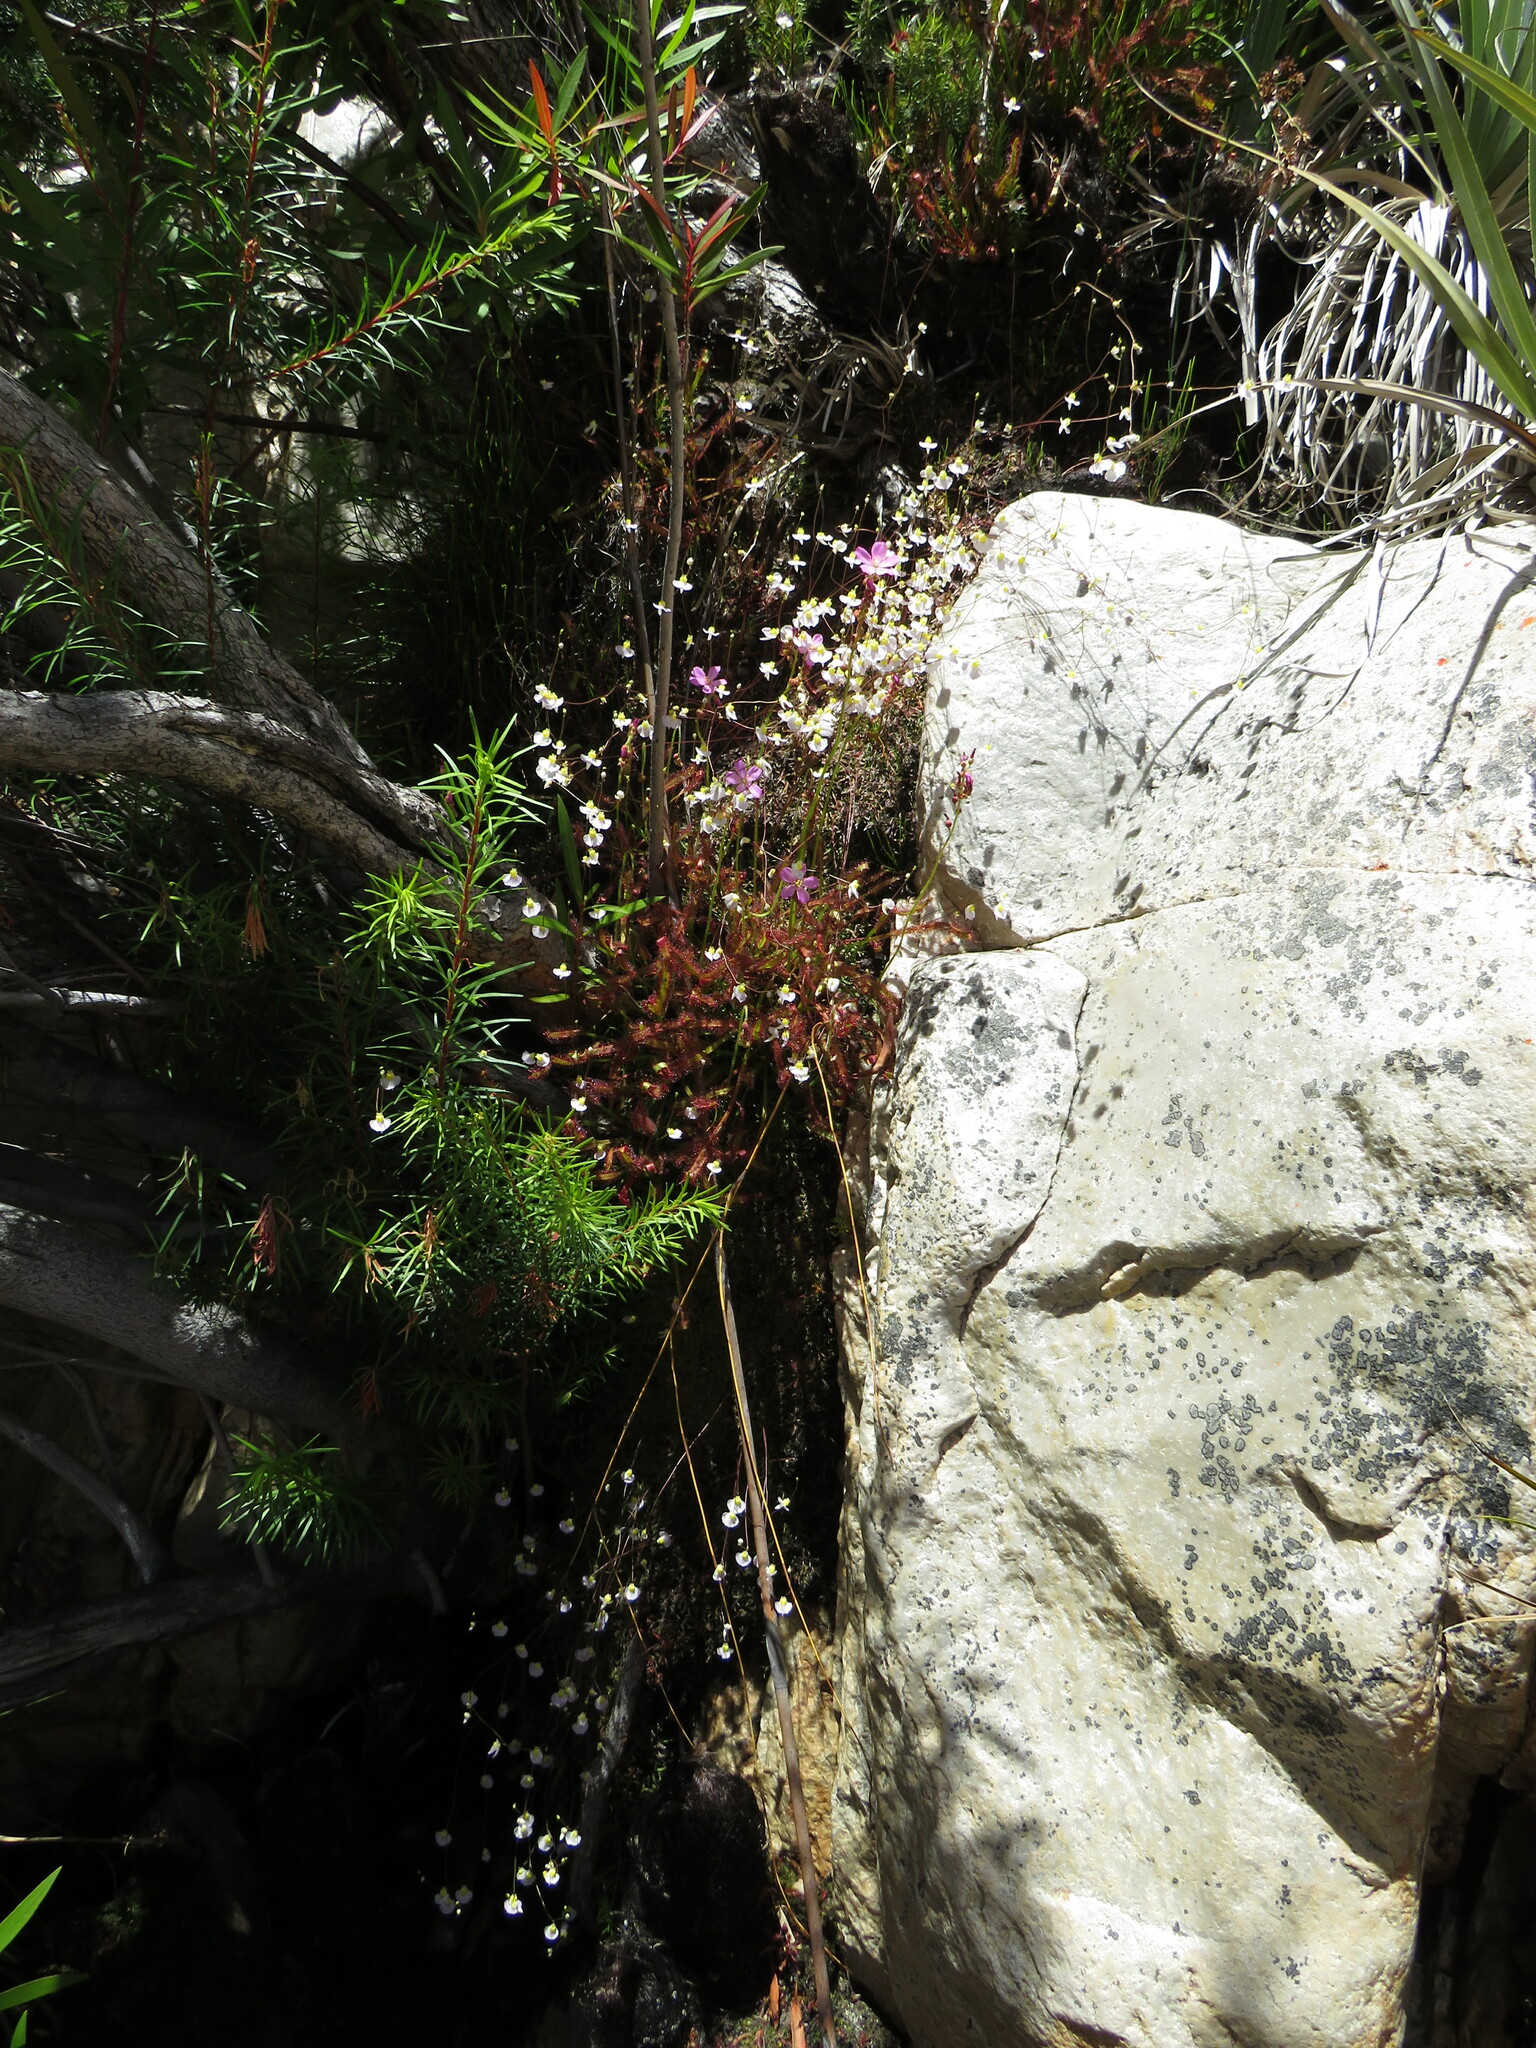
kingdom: Plantae
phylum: Tracheophyta
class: Magnoliopsida
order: Caryophyllales
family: Droseraceae
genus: Drosera
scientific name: Drosera capensis
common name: Cape sundew
